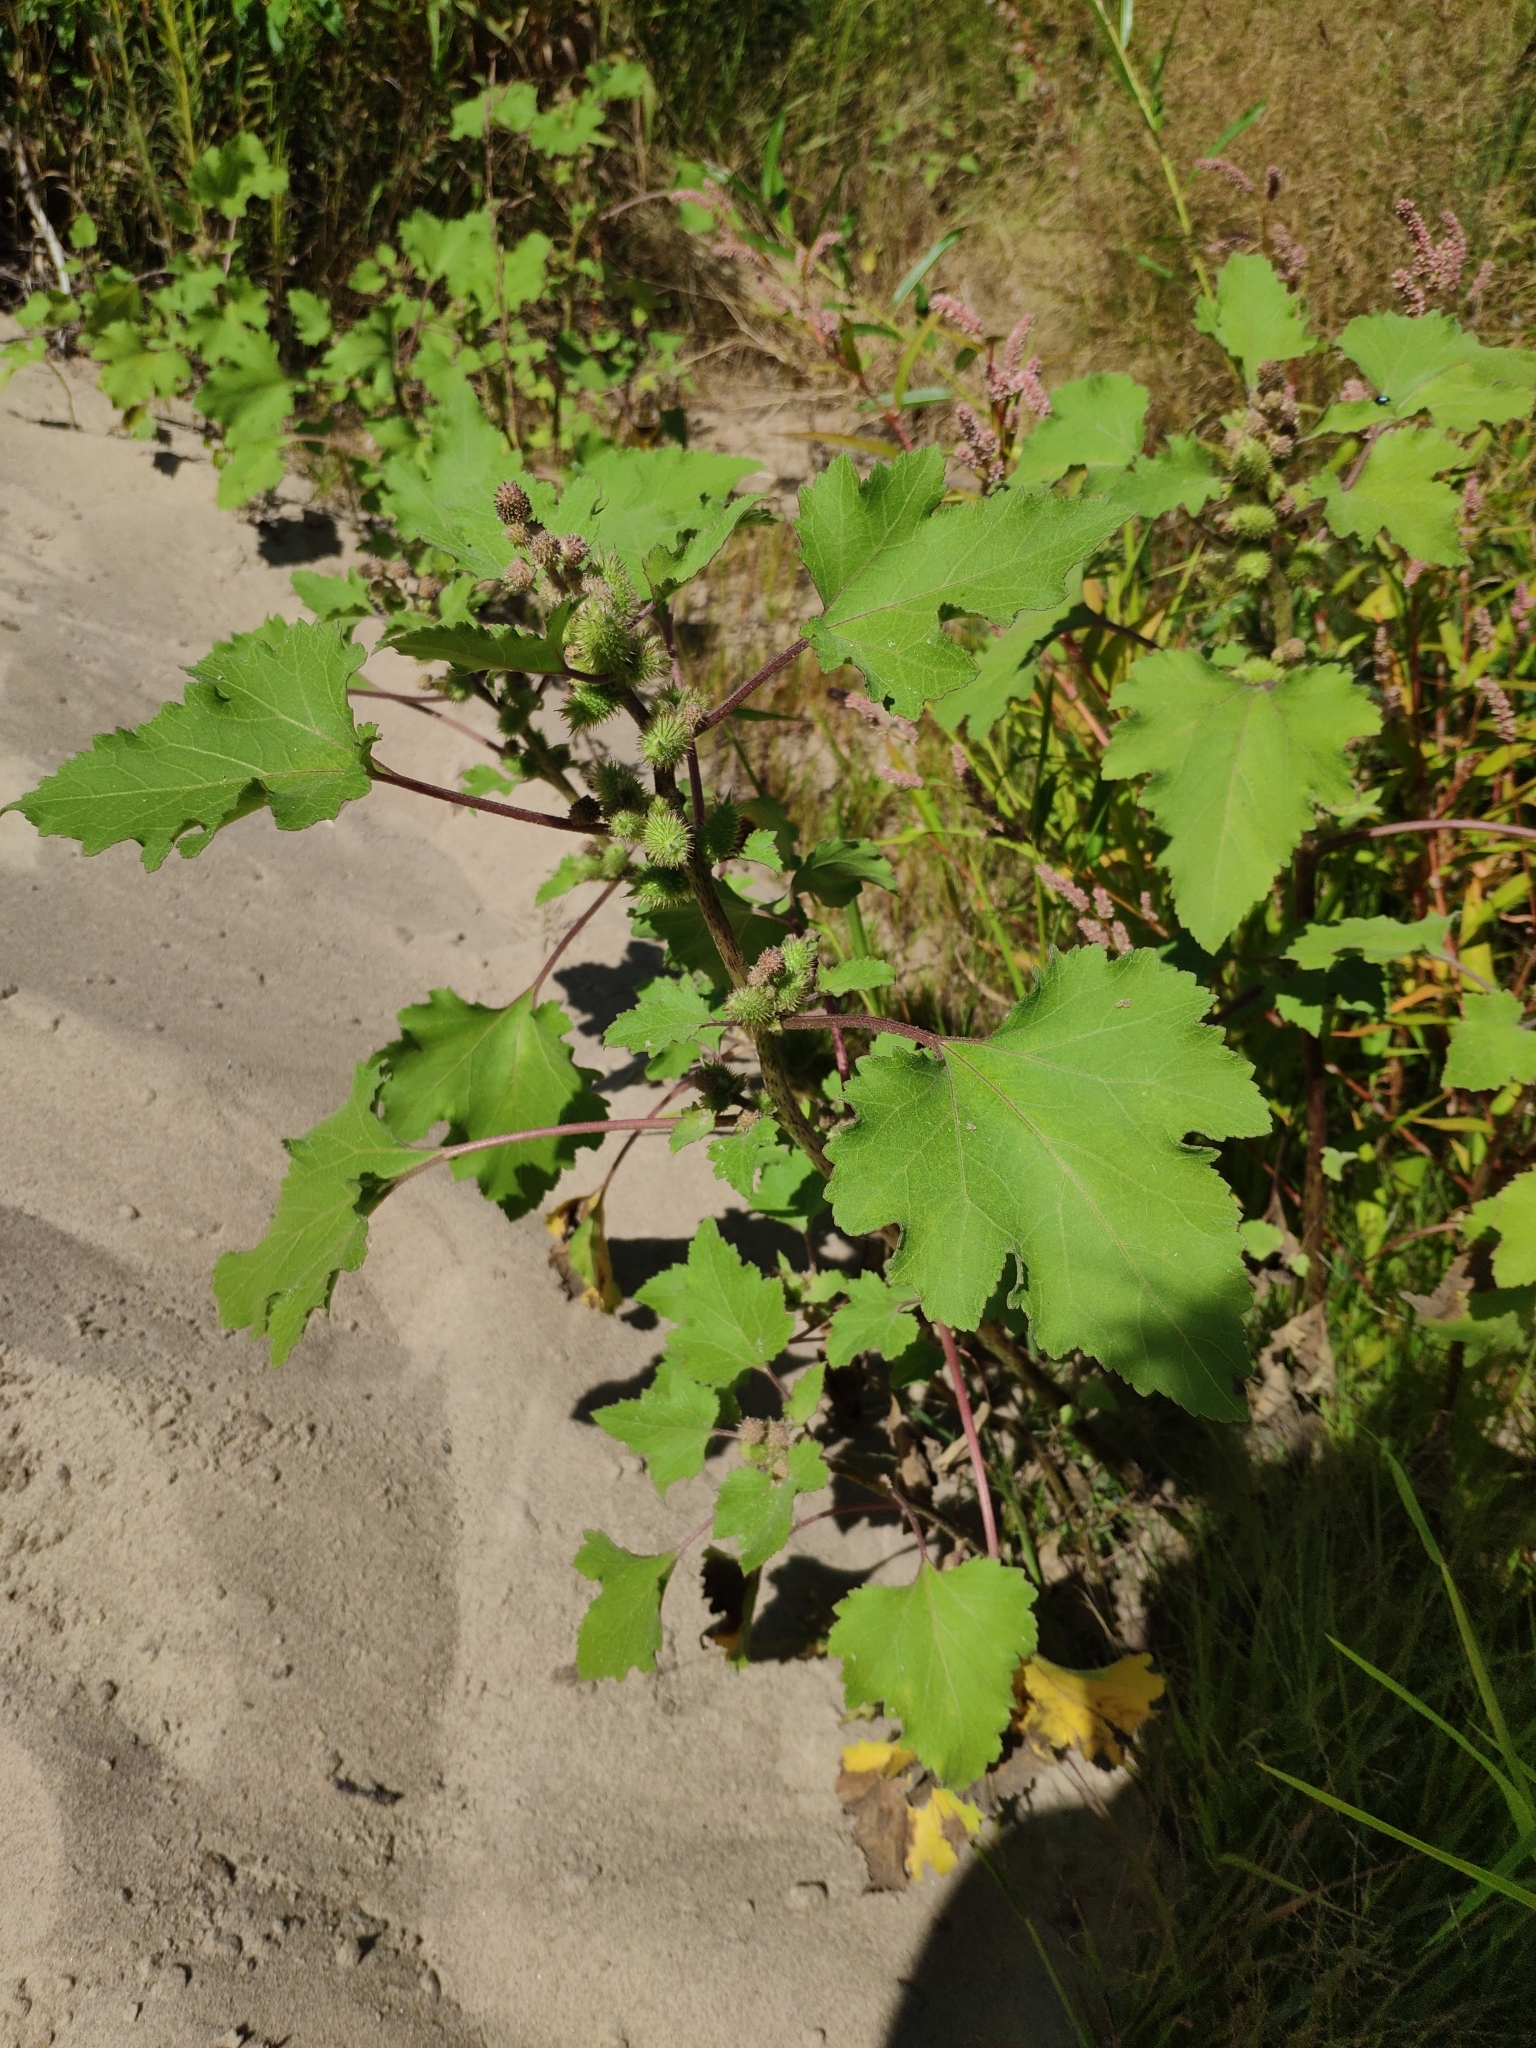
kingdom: Plantae
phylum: Tracheophyta
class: Magnoliopsida
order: Asterales
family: Asteraceae
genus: Xanthium
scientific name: Xanthium orientale
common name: Californian burr
